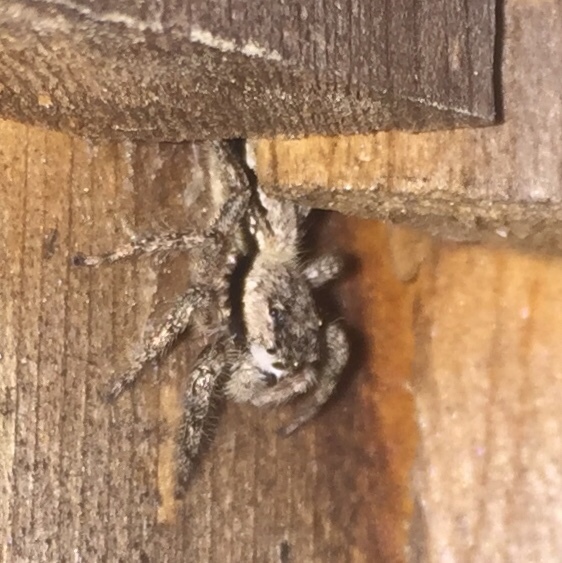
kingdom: Animalia
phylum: Arthropoda
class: Arachnida
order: Araneae
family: Salticidae
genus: Platycryptus
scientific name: Platycryptus undatus
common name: Tan jumping spider
